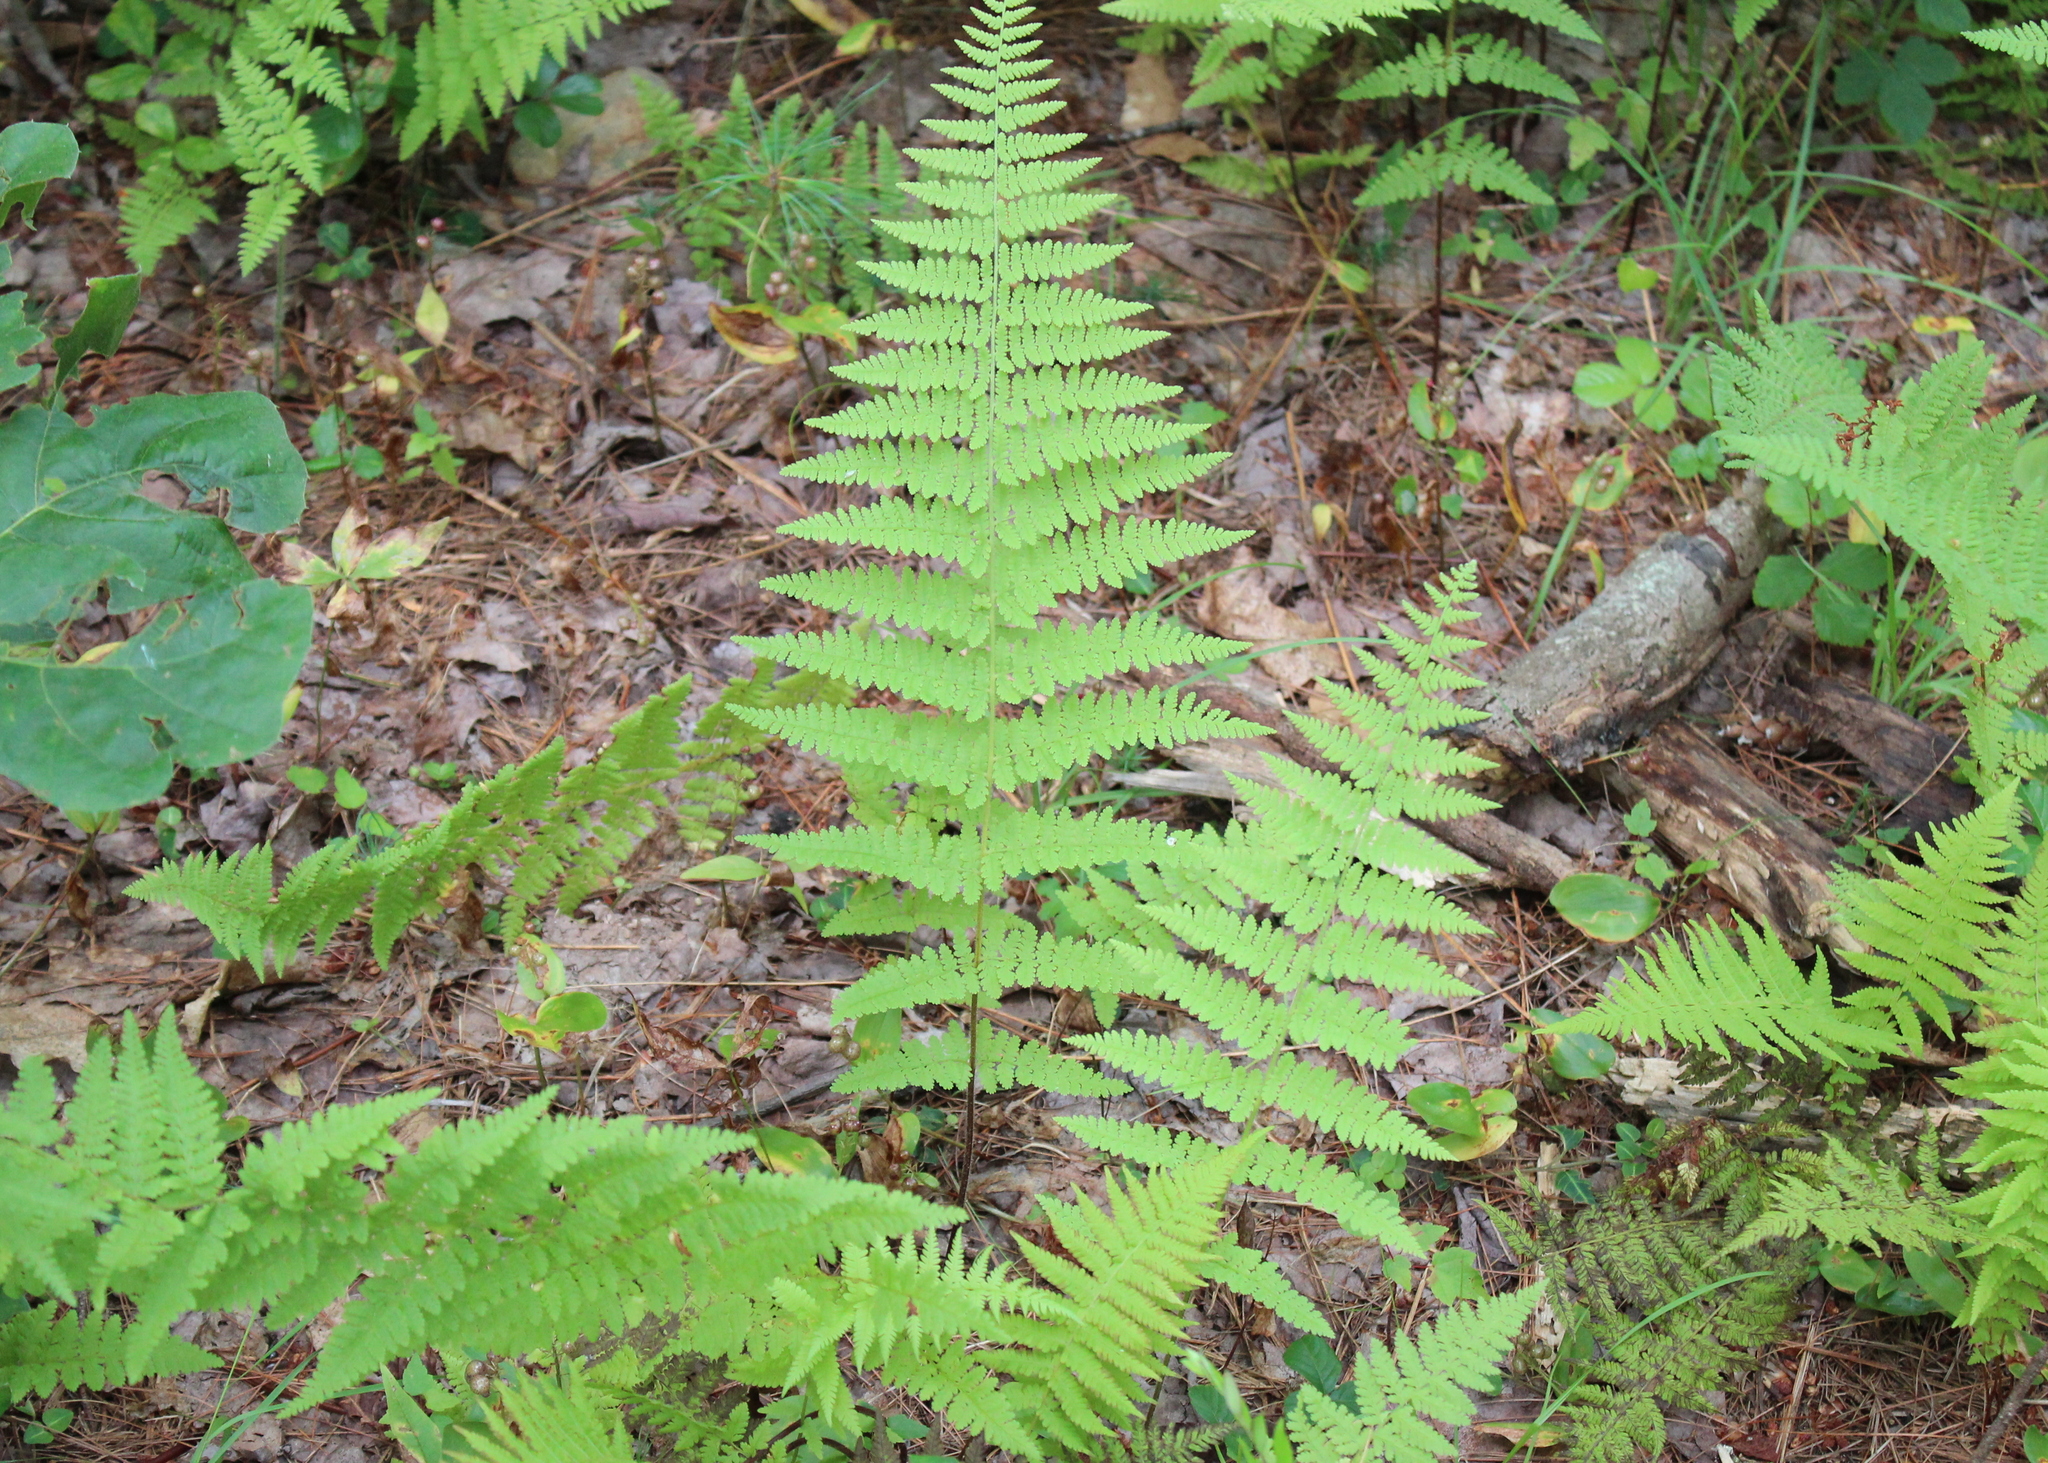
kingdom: Plantae
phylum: Tracheophyta
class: Polypodiopsida
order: Polypodiales
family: Dennstaedtiaceae
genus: Sitobolium
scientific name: Sitobolium punctilobum
